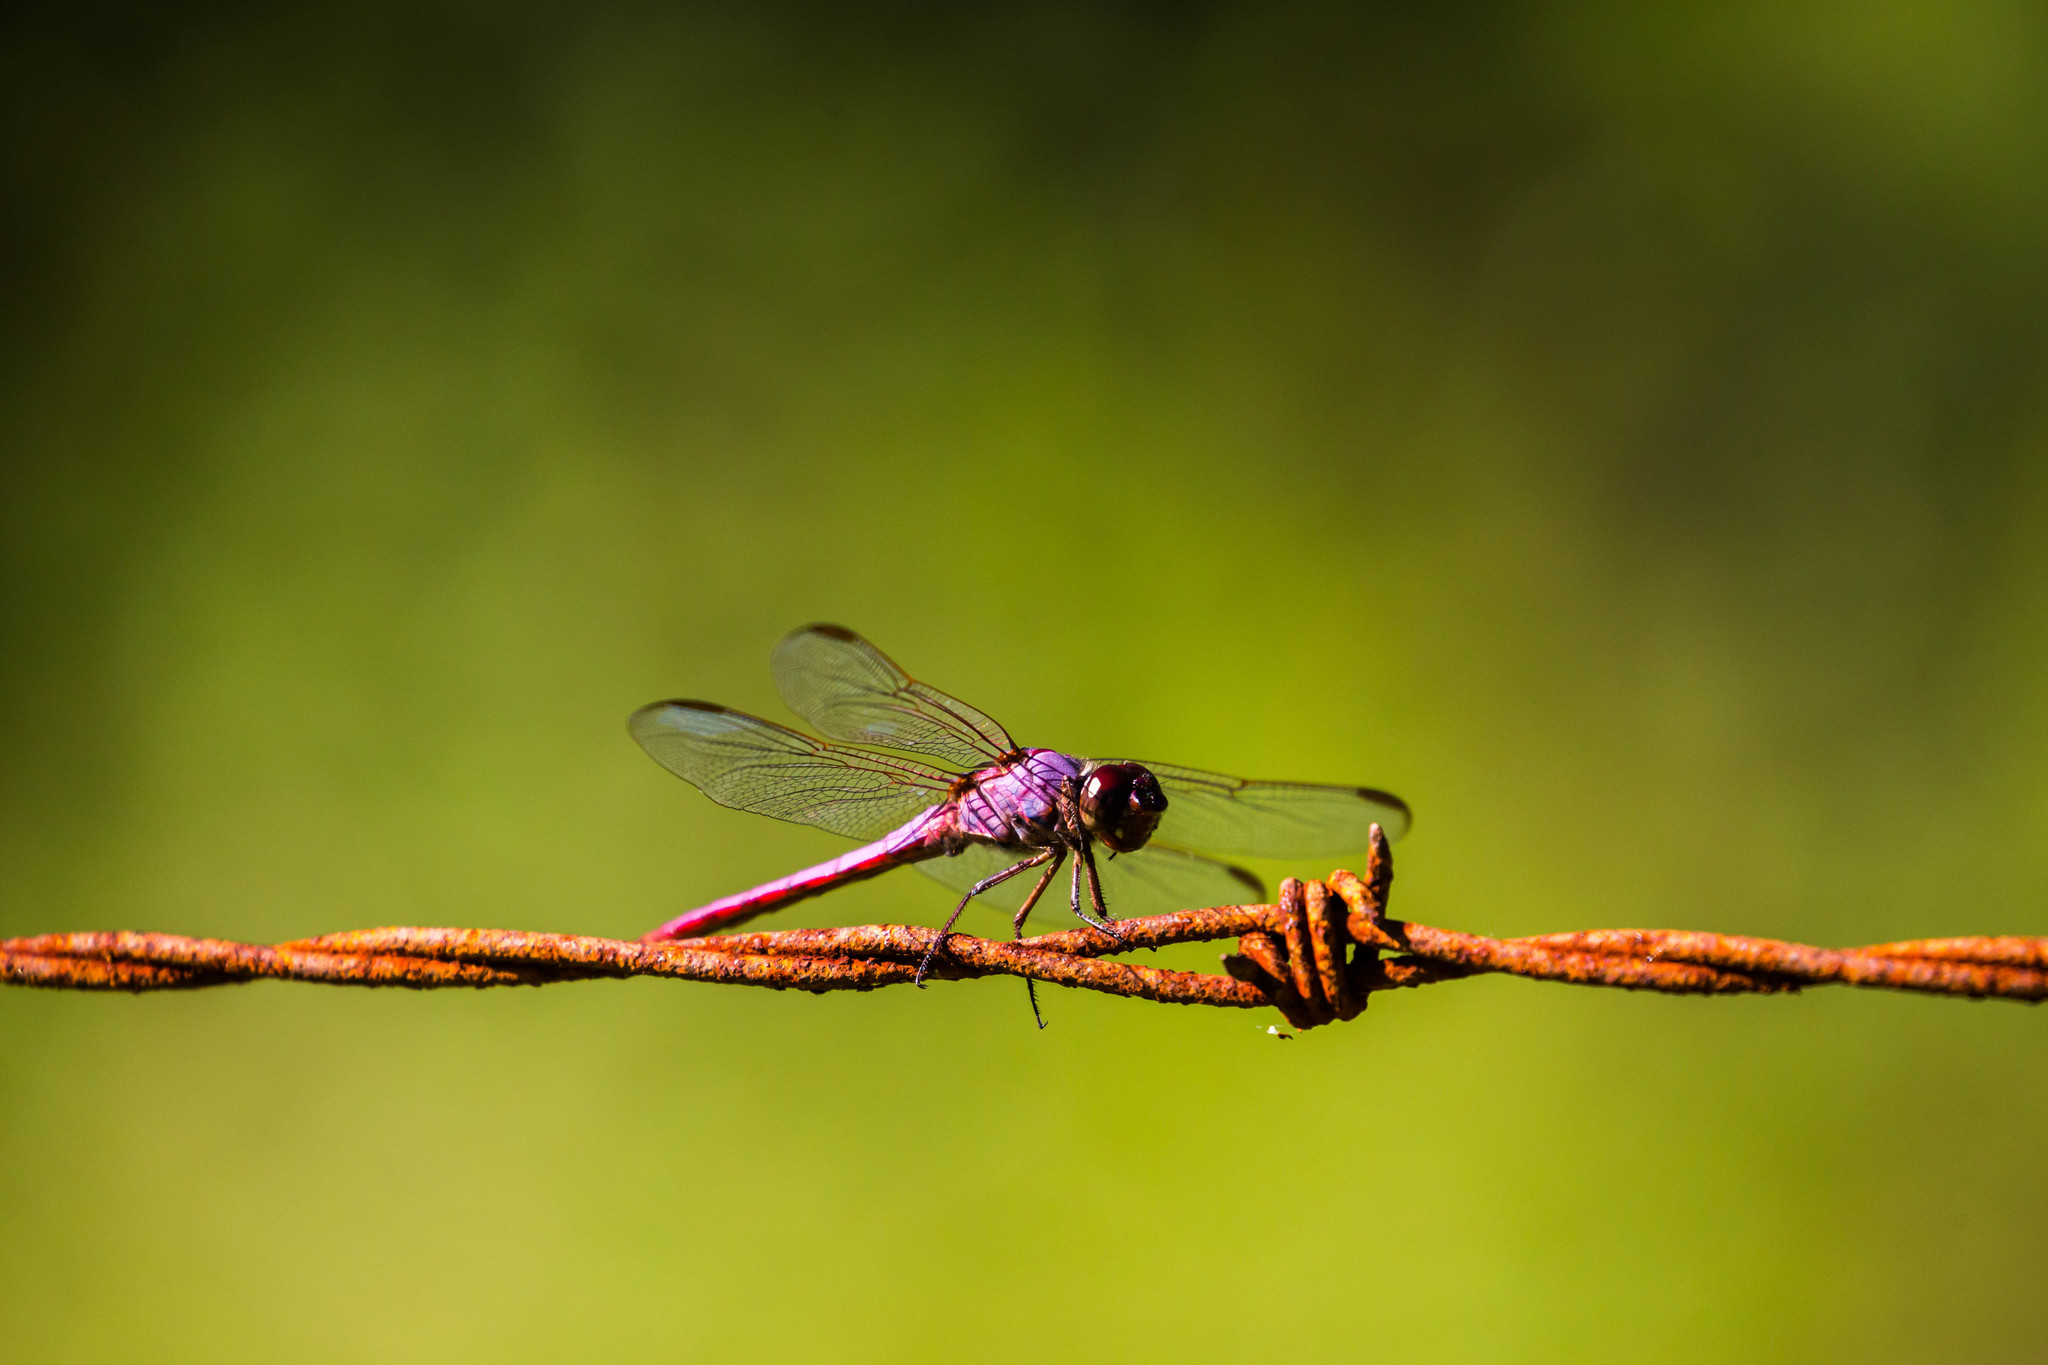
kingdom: Animalia
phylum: Arthropoda
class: Insecta
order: Odonata
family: Libellulidae
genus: Orthemis
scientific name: Orthemis ferruginea
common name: Roseate skimmer
